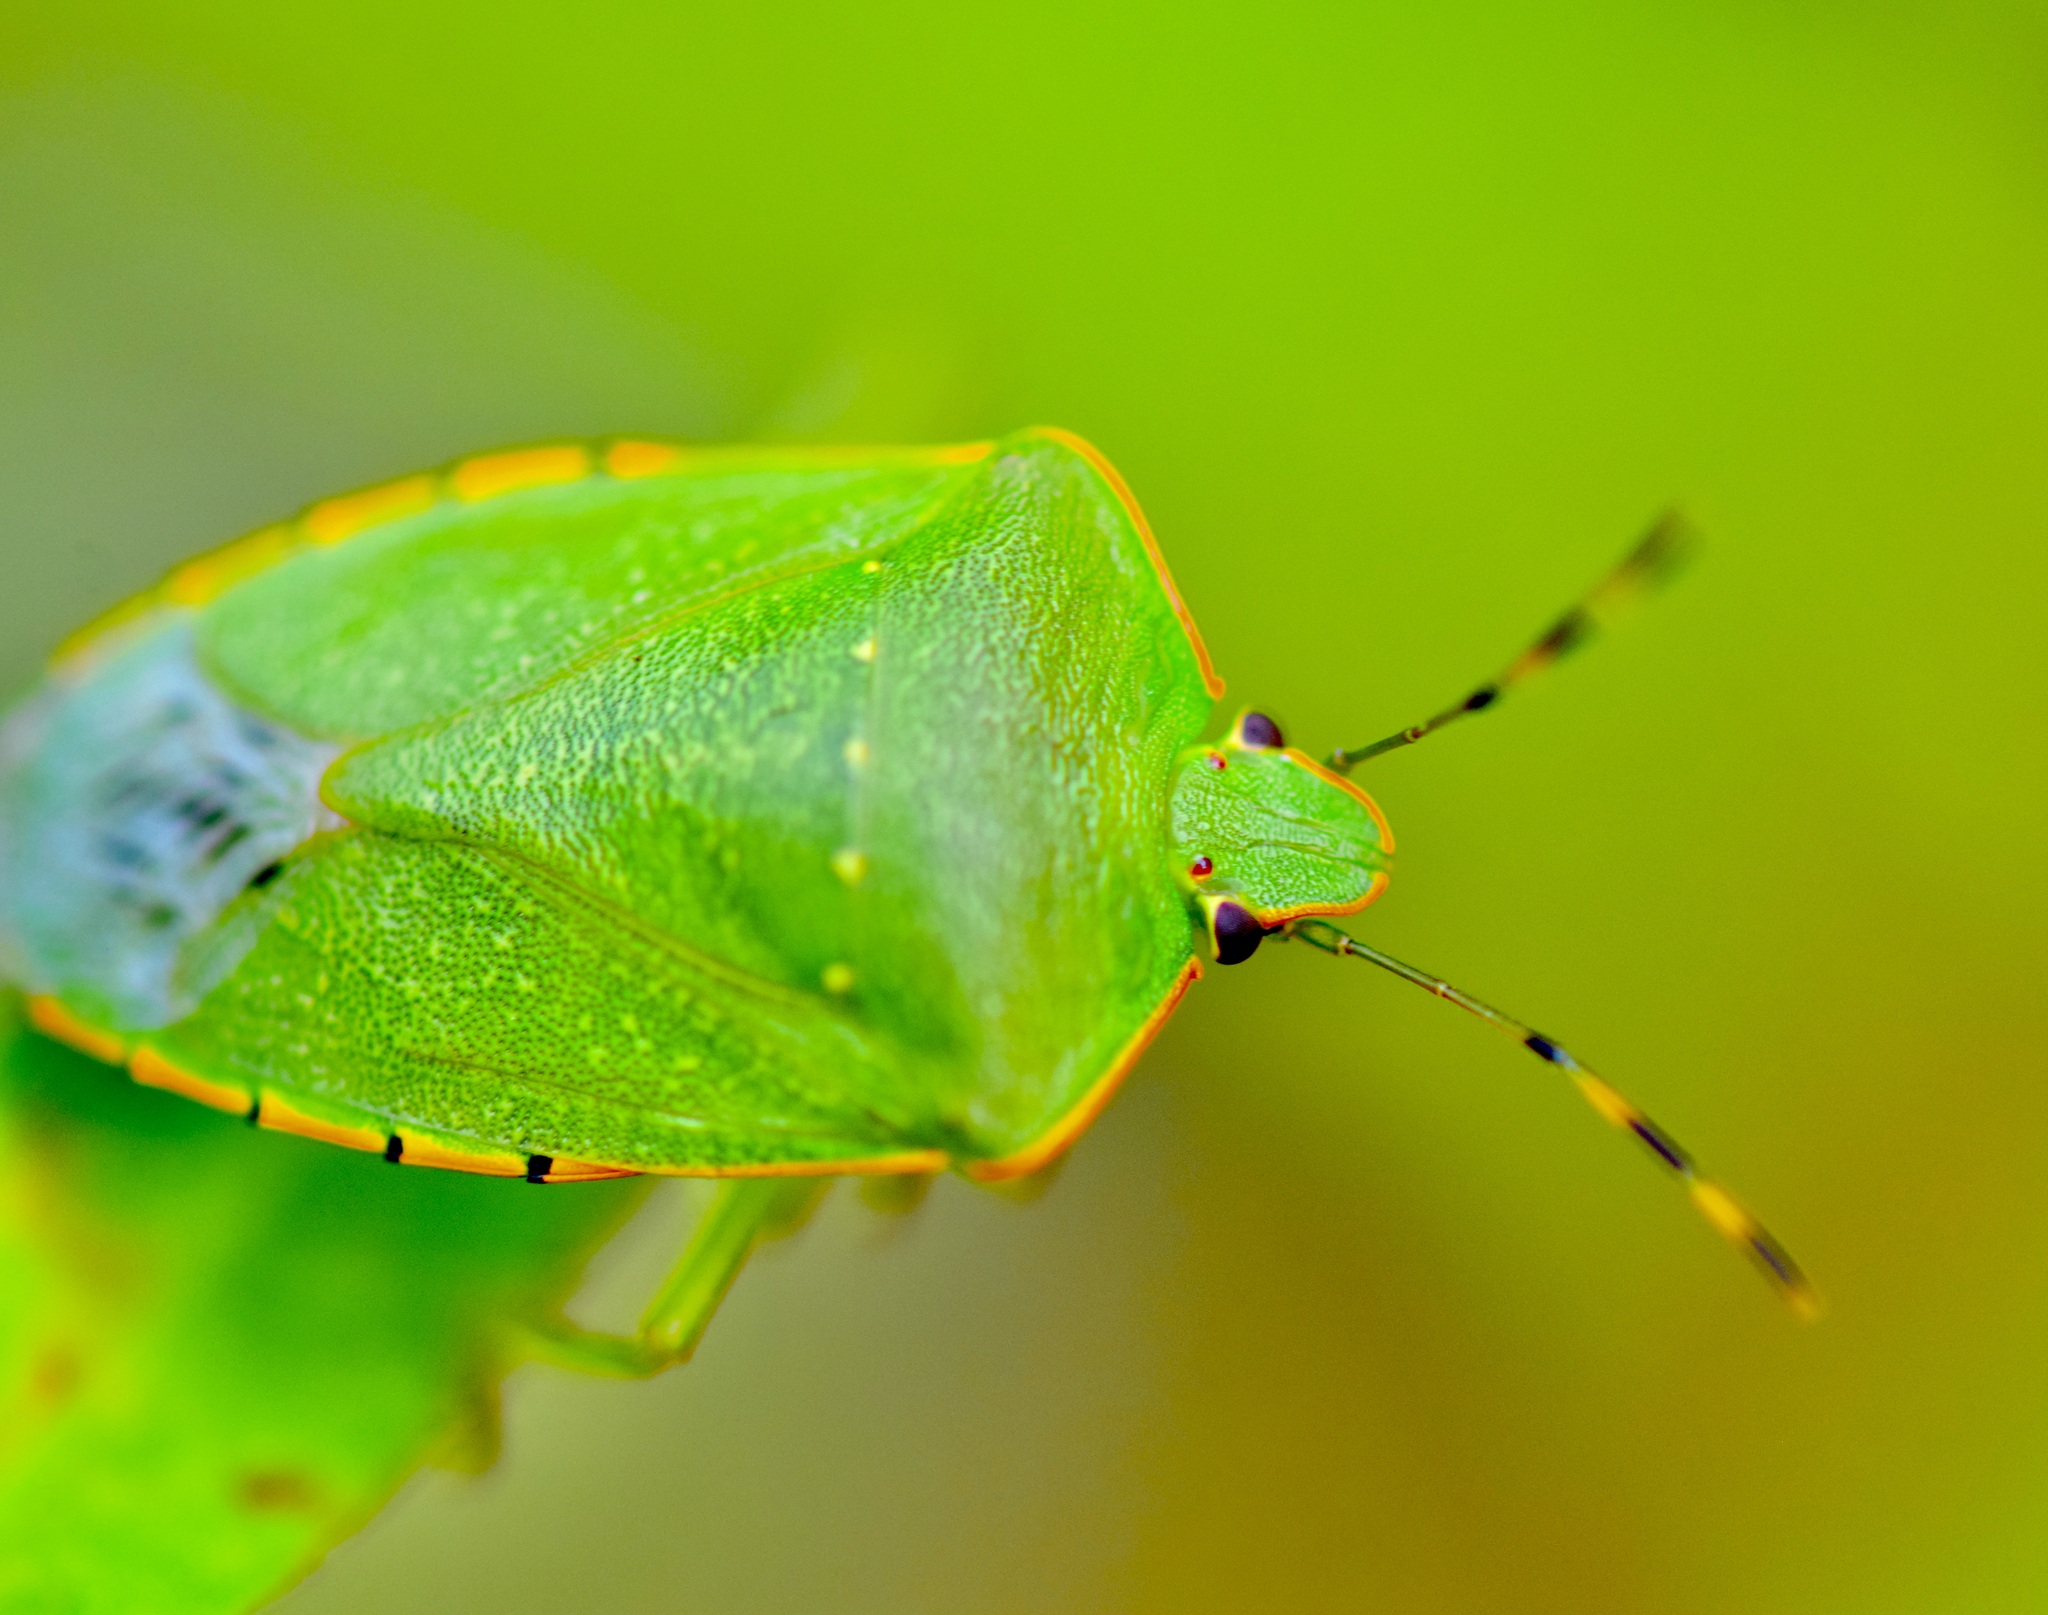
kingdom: Animalia
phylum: Arthropoda
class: Insecta
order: Hemiptera
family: Pentatomidae
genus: Chinavia
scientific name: Chinavia hilaris
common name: Green stink bug
